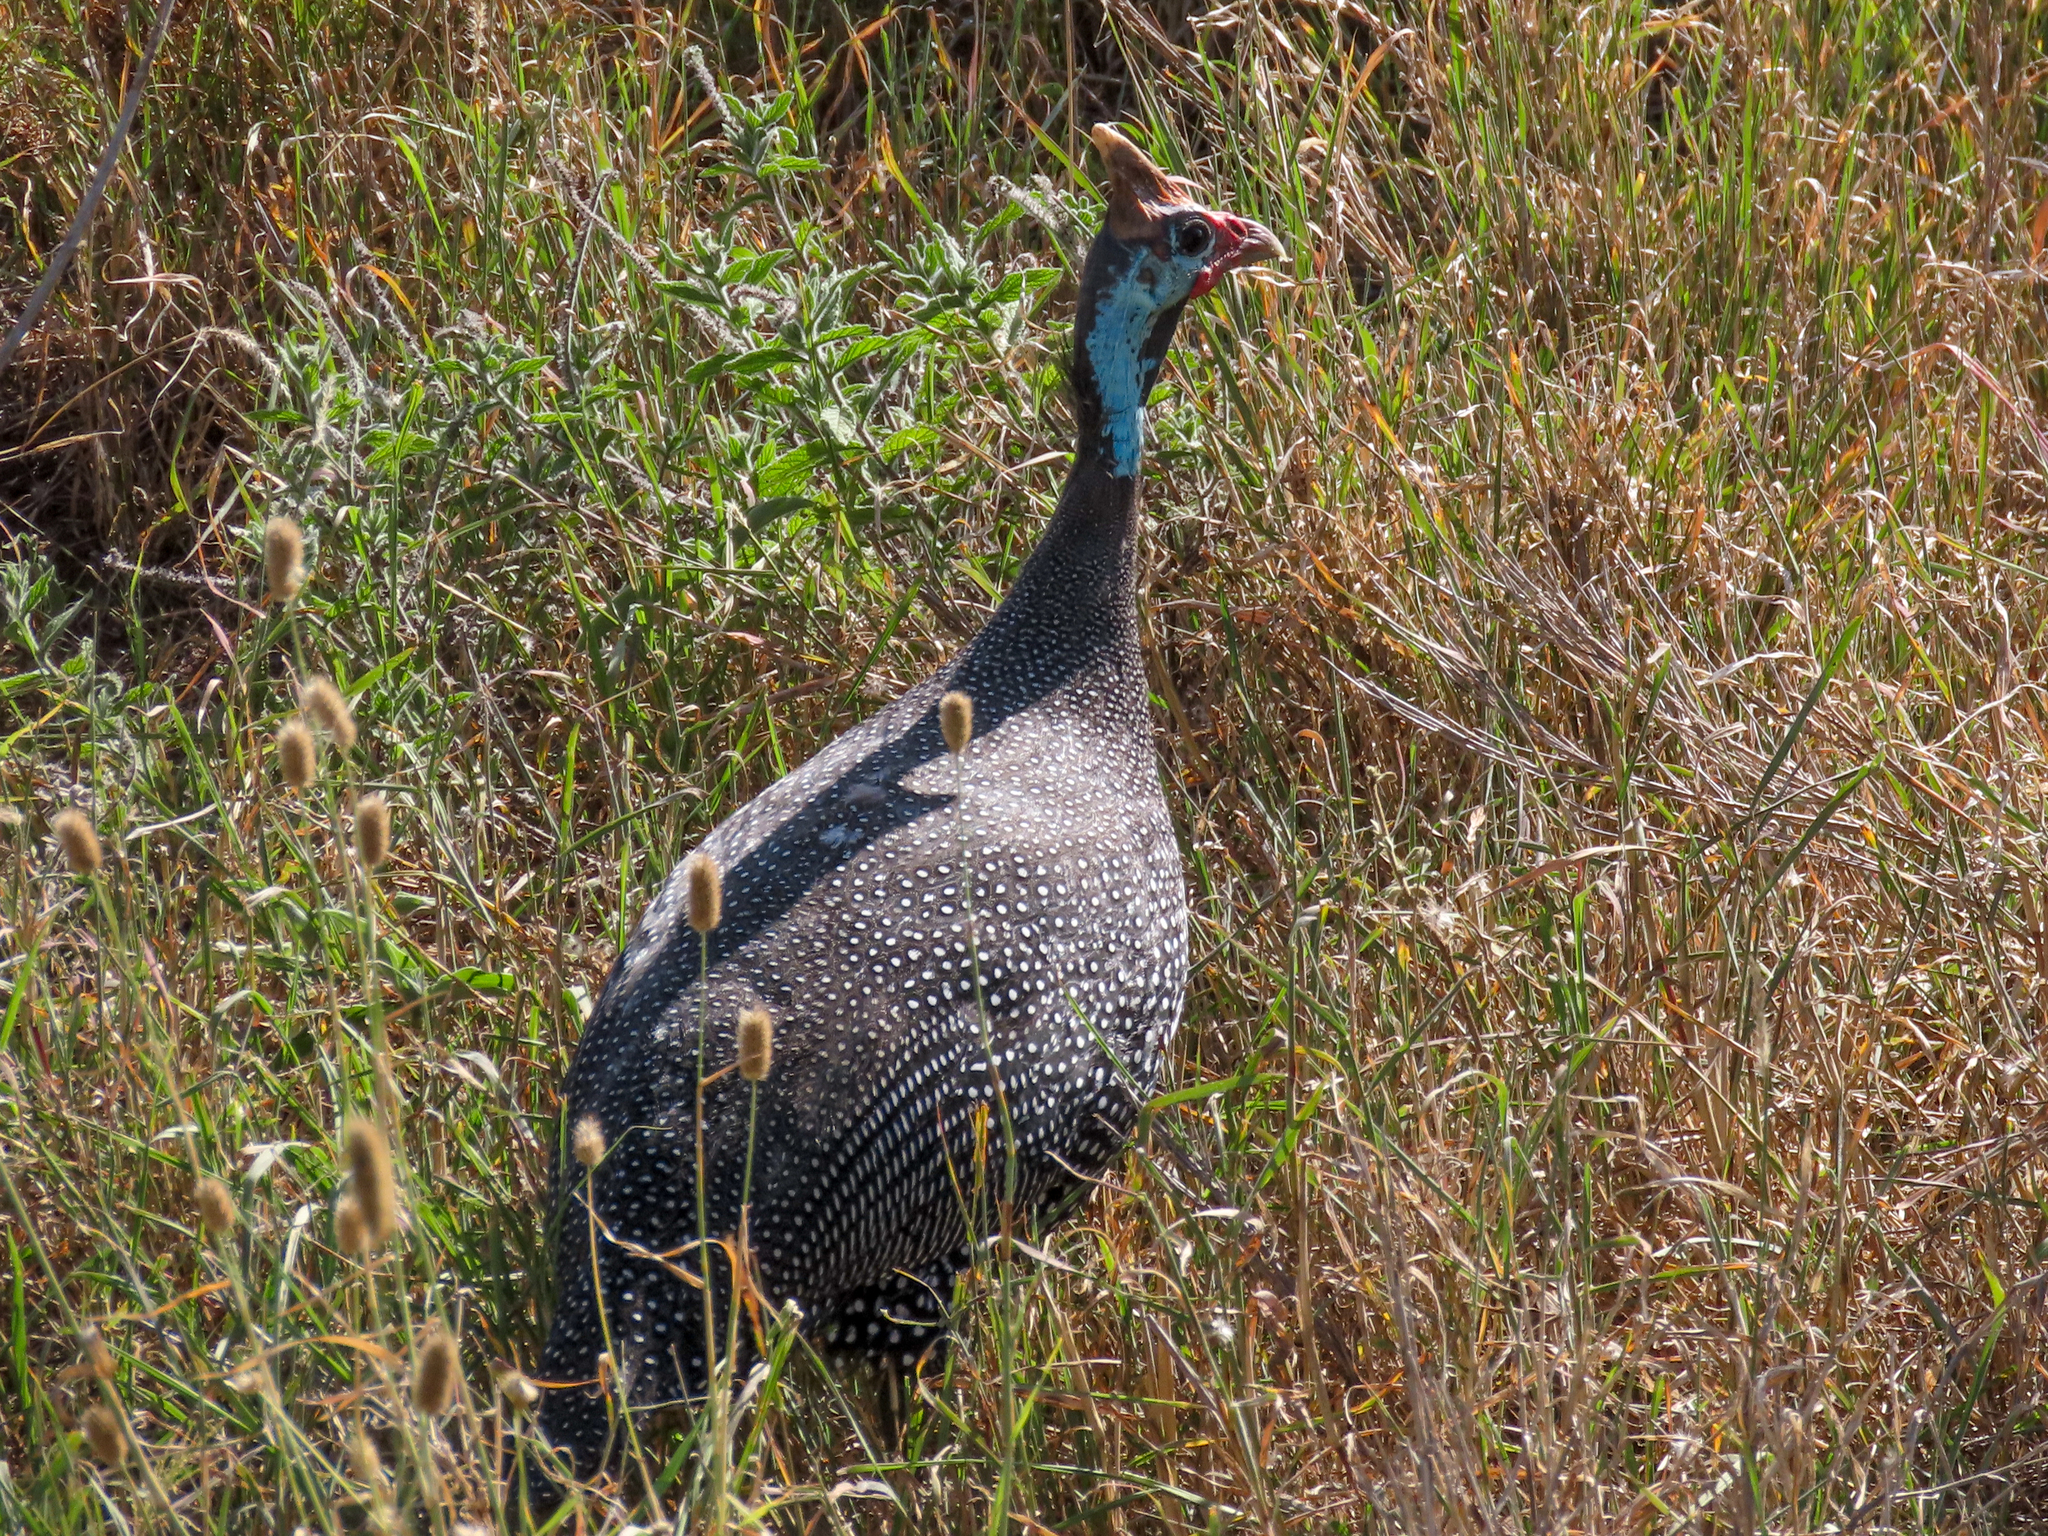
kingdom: Animalia
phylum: Chordata
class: Aves
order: Galliformes
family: Numididae
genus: Numida
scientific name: Numida meleagris
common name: Helmeted guineafowl
